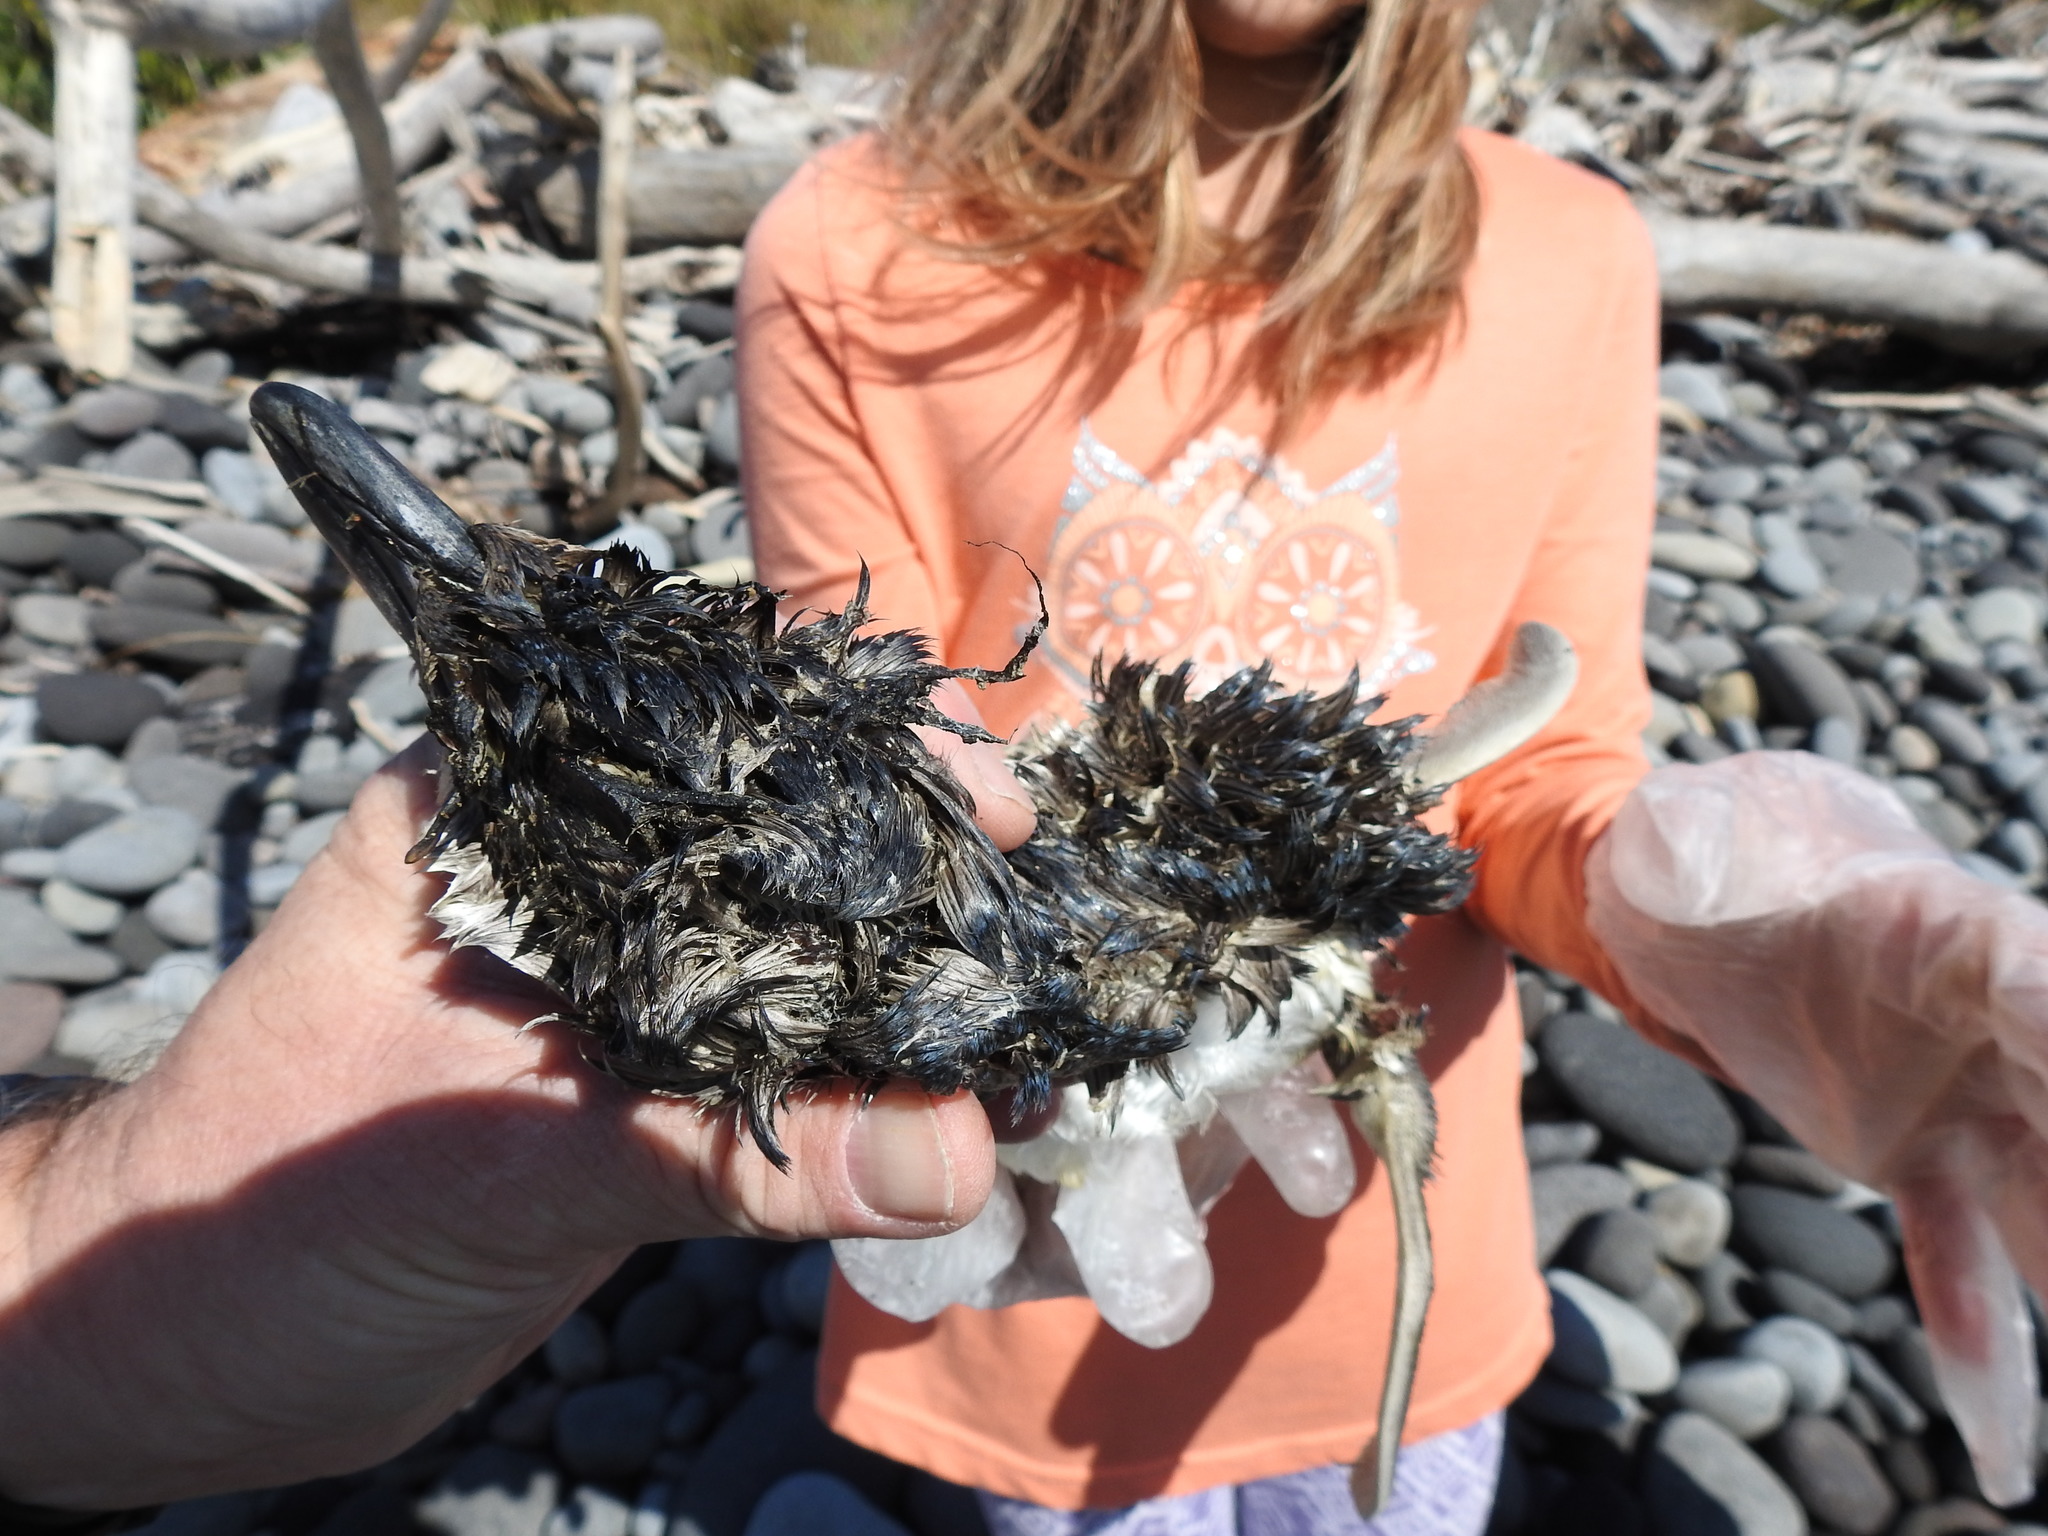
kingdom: Animalia
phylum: Chordata
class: Aves
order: Sphenisciformes
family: Spheniscidae
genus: Eudyptula
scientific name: Eudyptula minor
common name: Little penguin
